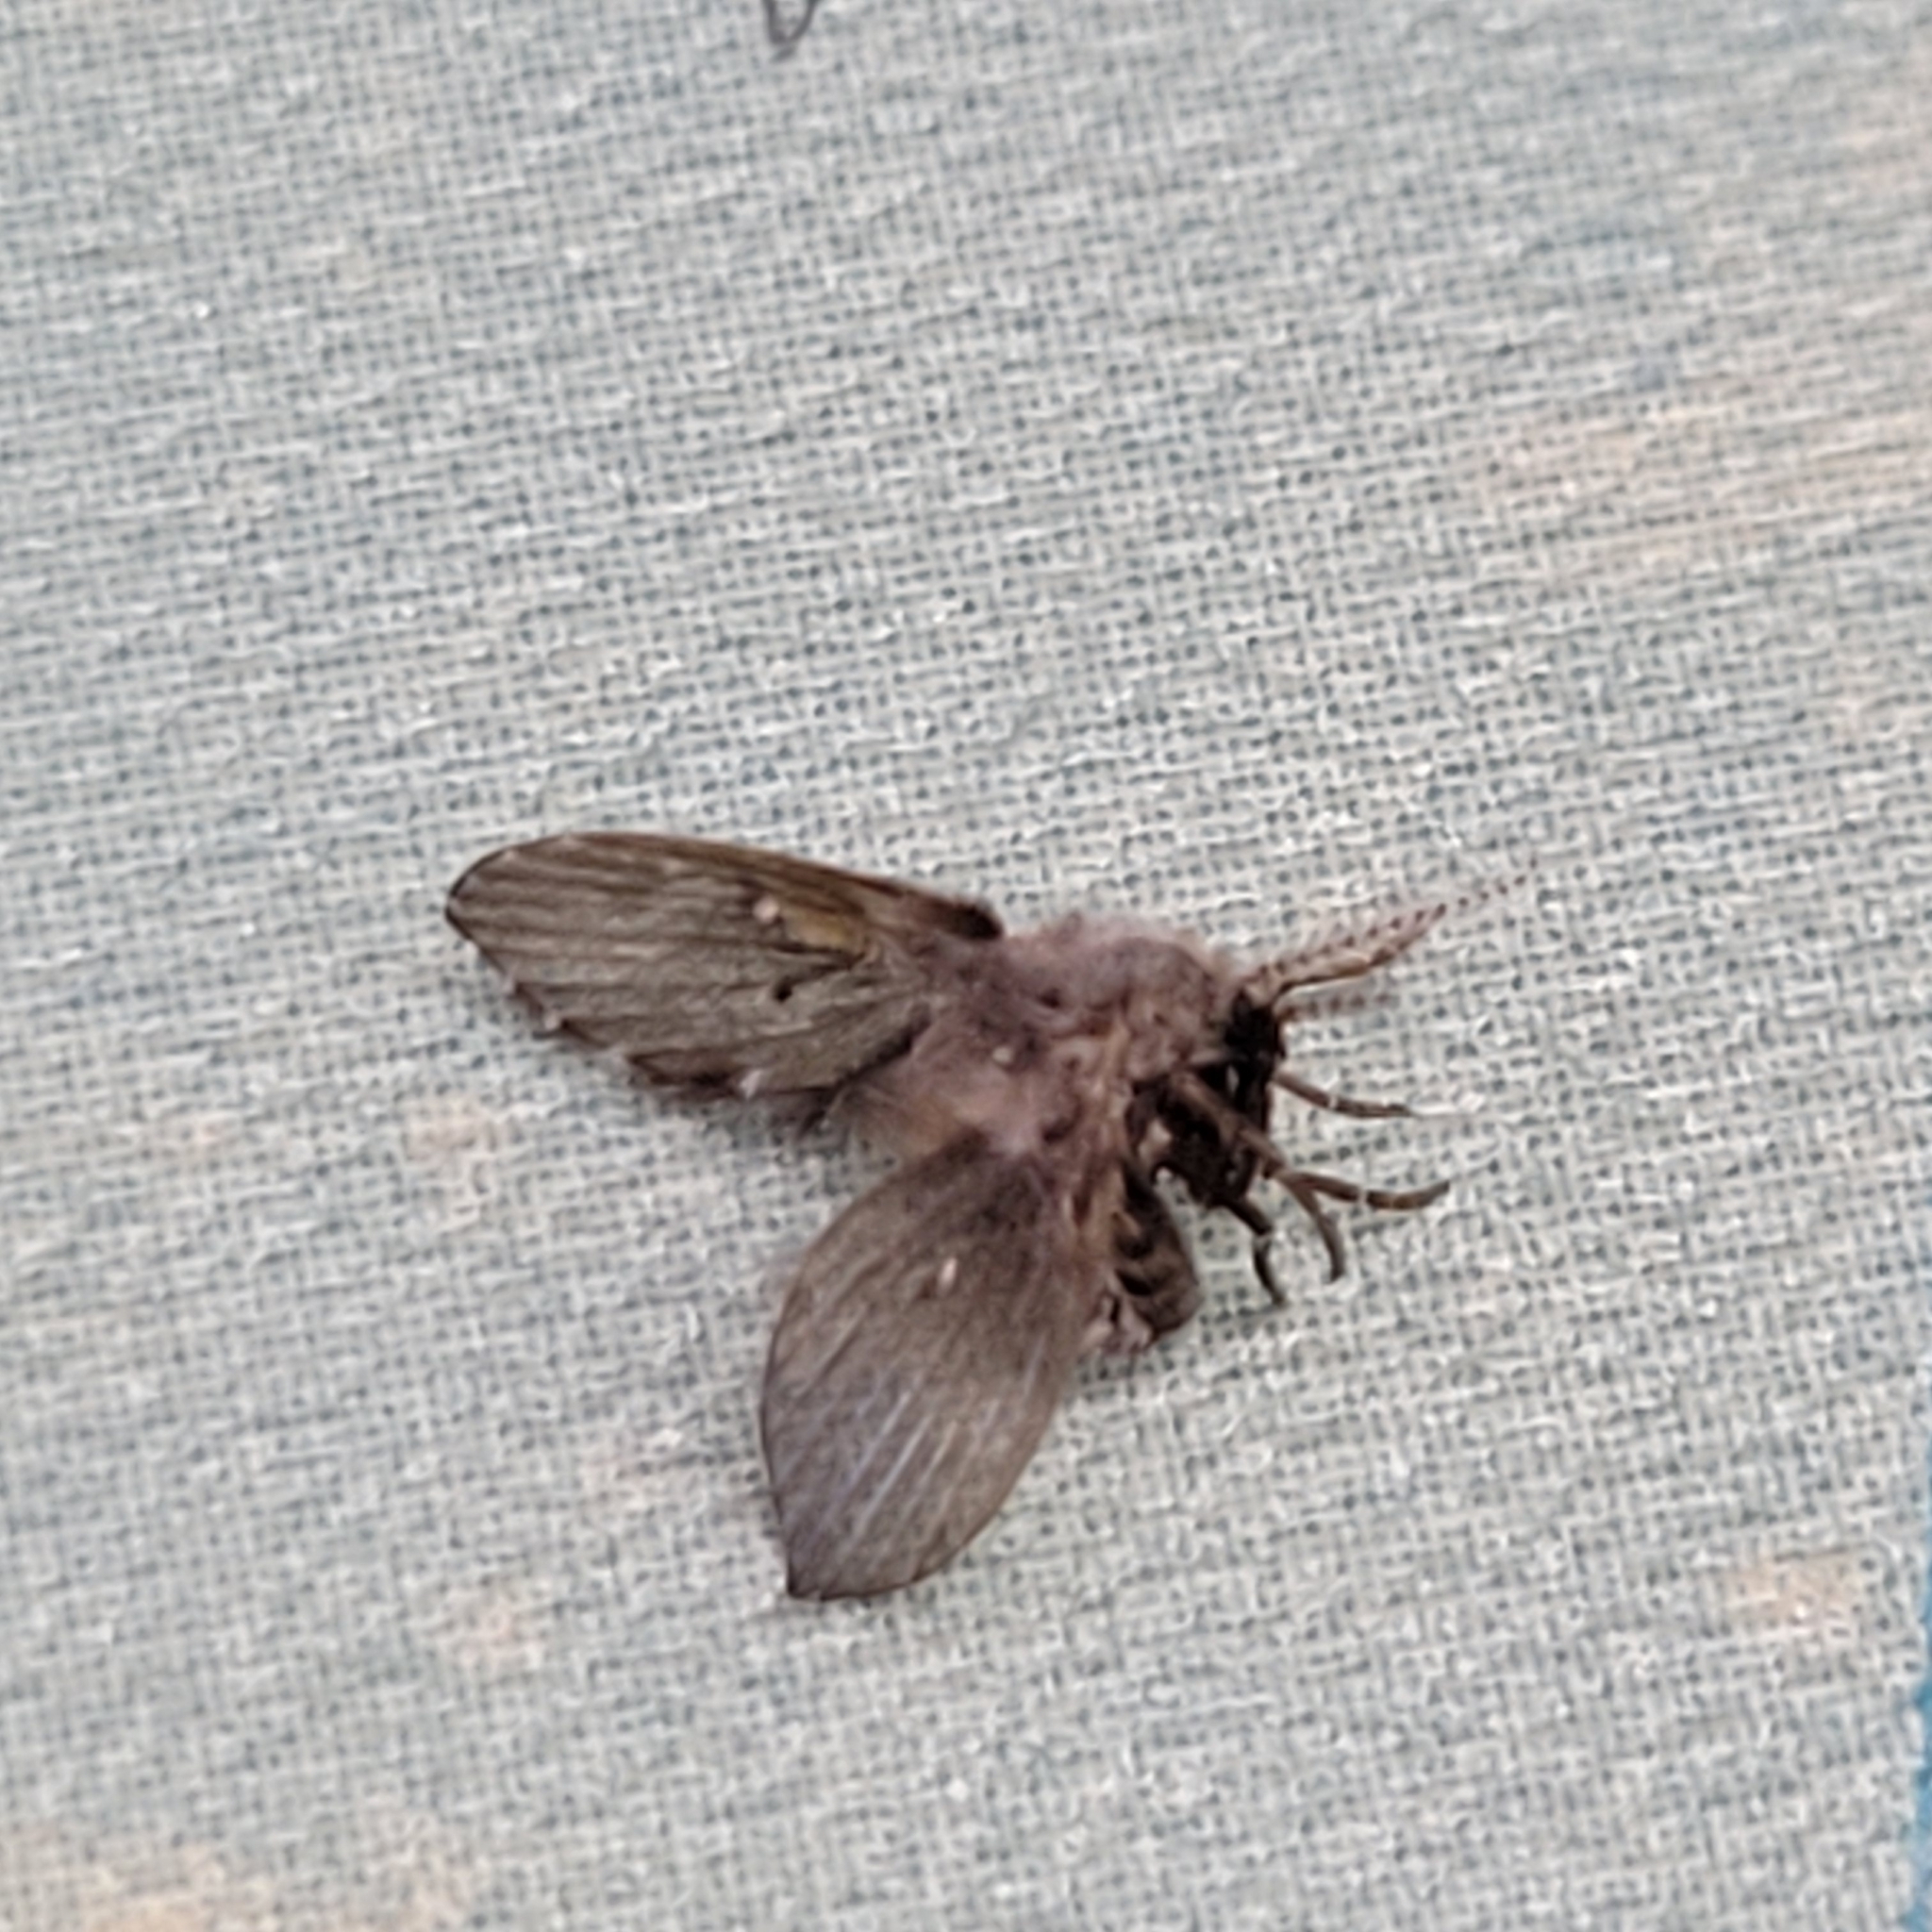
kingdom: Animalia
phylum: Arthropoda
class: Insecta
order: Diptera
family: Psychodidae
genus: Clogmia
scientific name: Clogmia albipunctatus
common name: White-spotted moth fly
